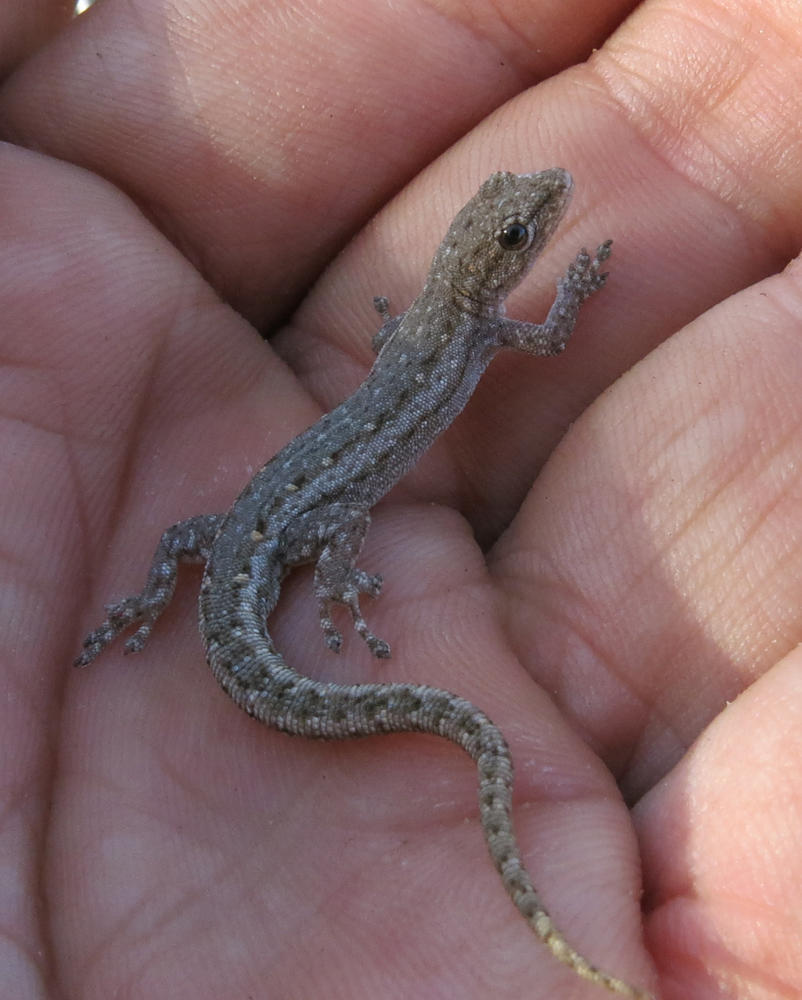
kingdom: Animalia
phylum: Chordata
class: Squamata
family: Gekkonidae
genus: Lygodactylus
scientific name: Lygodactylus bradfieldi
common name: Bradfield's dwarf gecko
